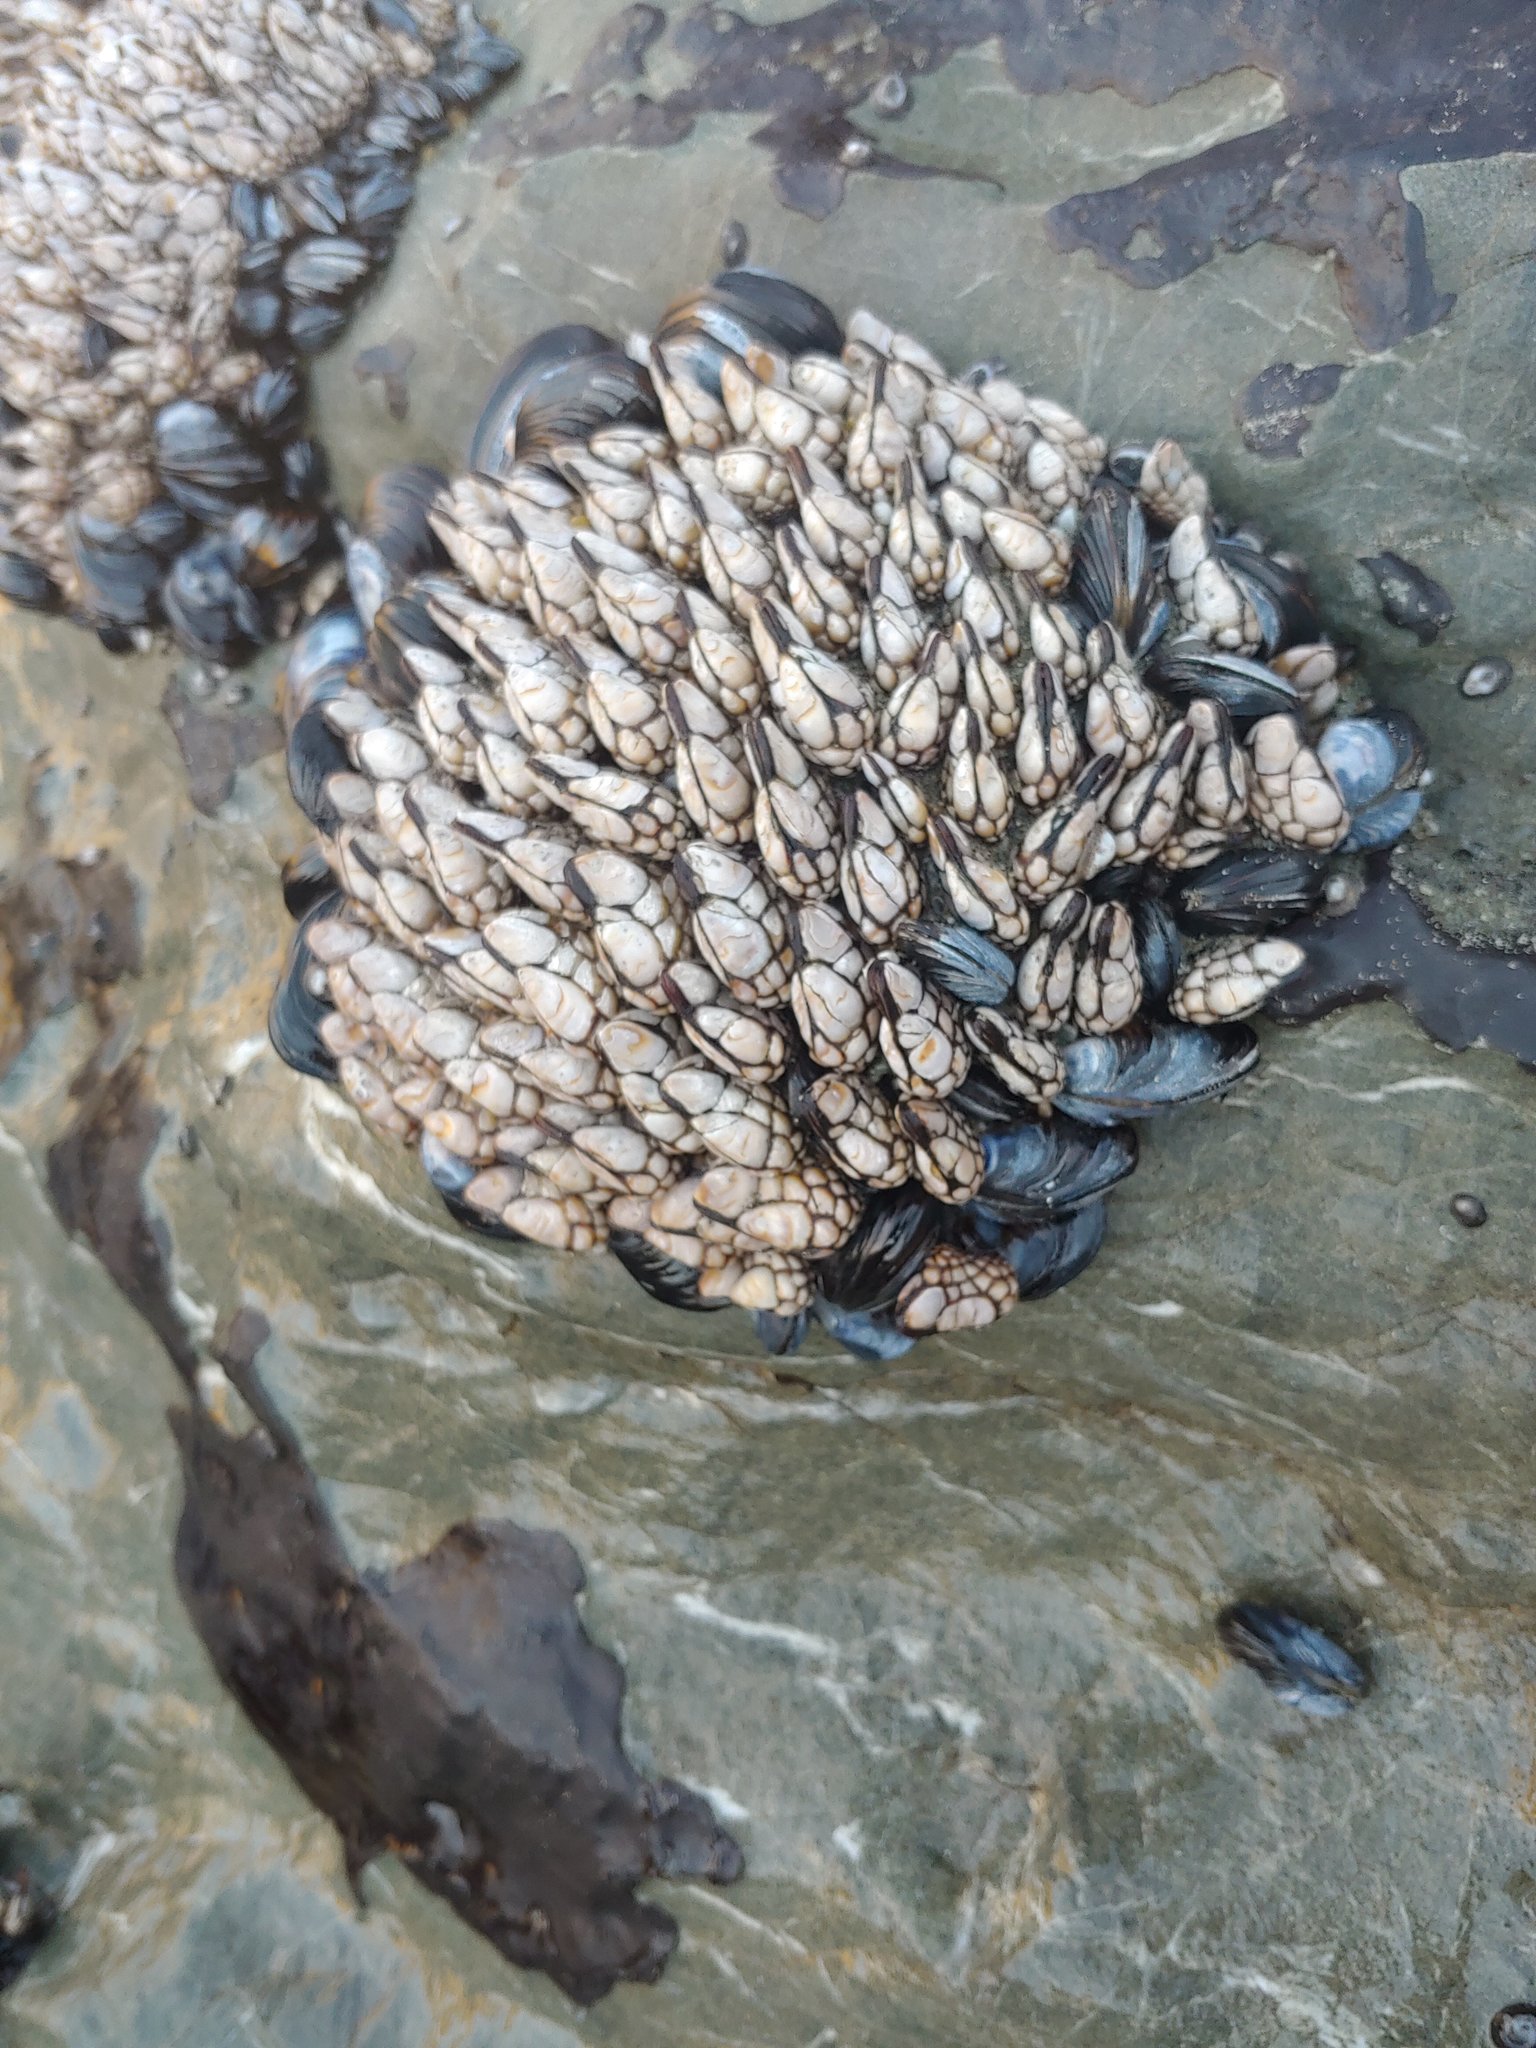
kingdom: Animalia
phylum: Arthropoda
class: Maxillopoda
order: Pedunculata
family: Pollicipedidae
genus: Pollicipes
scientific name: Pollicipes polymerus
